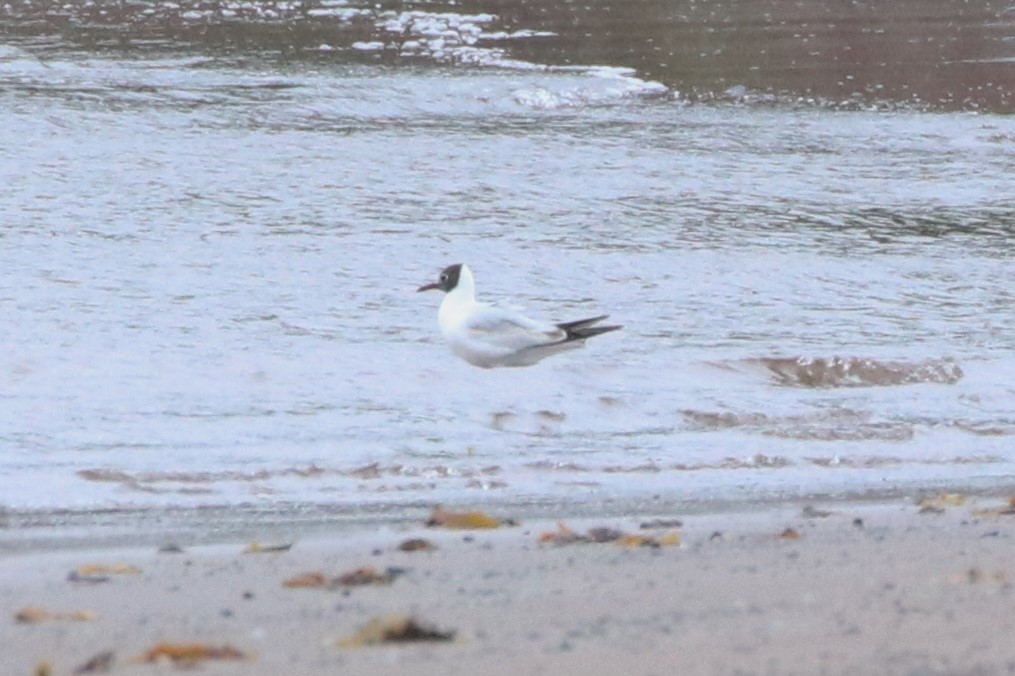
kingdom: Animalia
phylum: Chordata
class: Aves
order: Charadriiformes
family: Laridae
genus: Chroicocephalus
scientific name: Chroicocephalus ridibundus
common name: Black-headed gull
